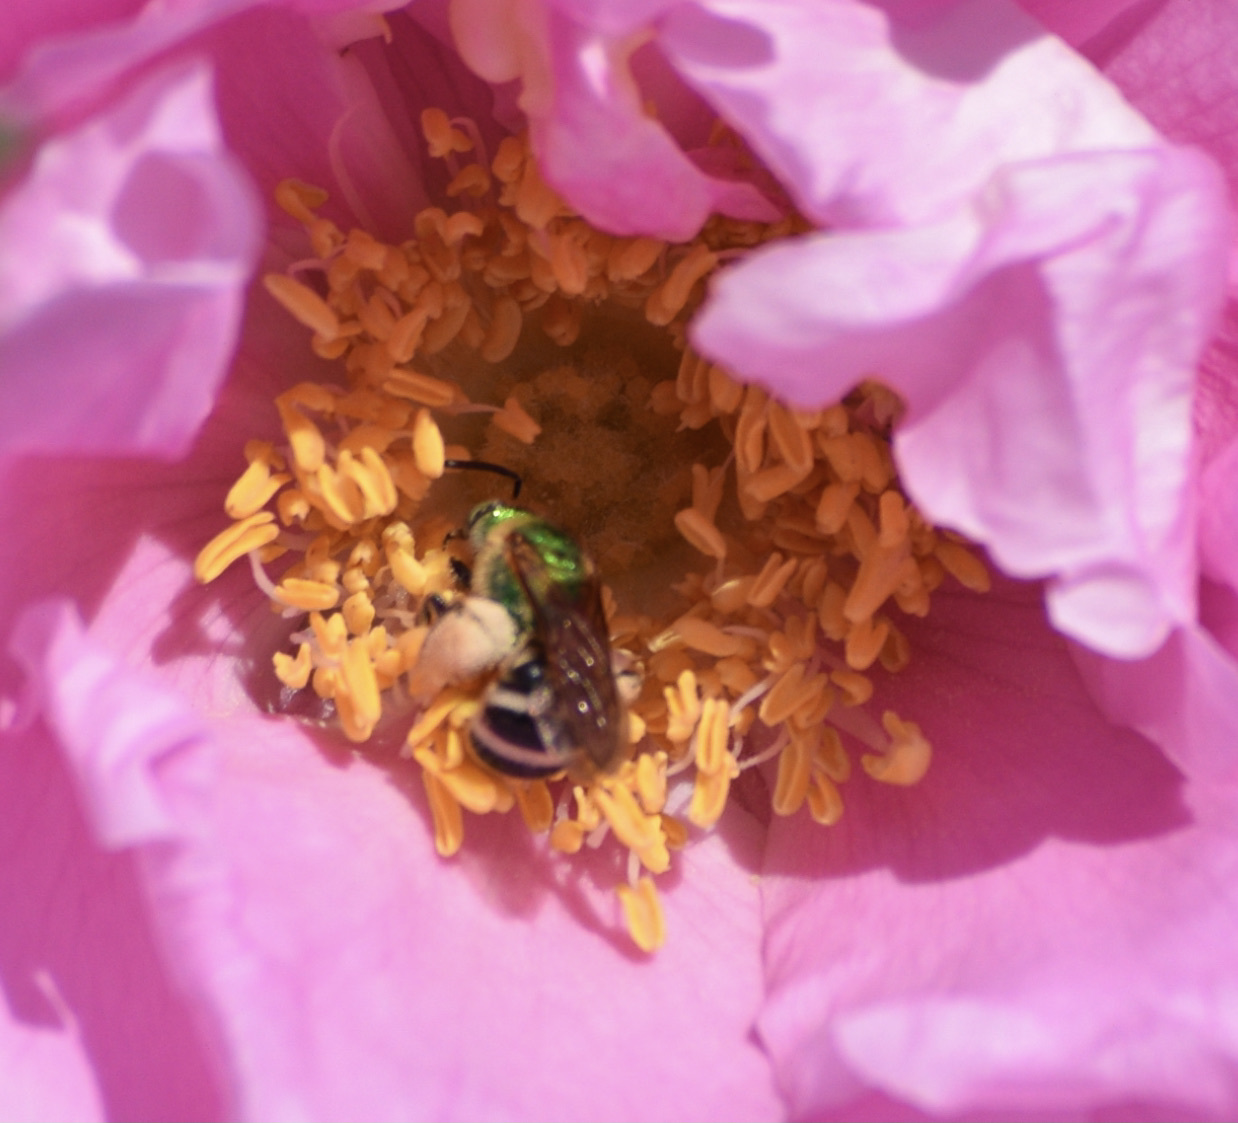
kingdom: Animalia
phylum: Arthropoda
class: Insecta
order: Hymenoptera
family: Halictidae
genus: Agapostemon
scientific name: Agapostemon virescens
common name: Bicolored striped sweat bee
